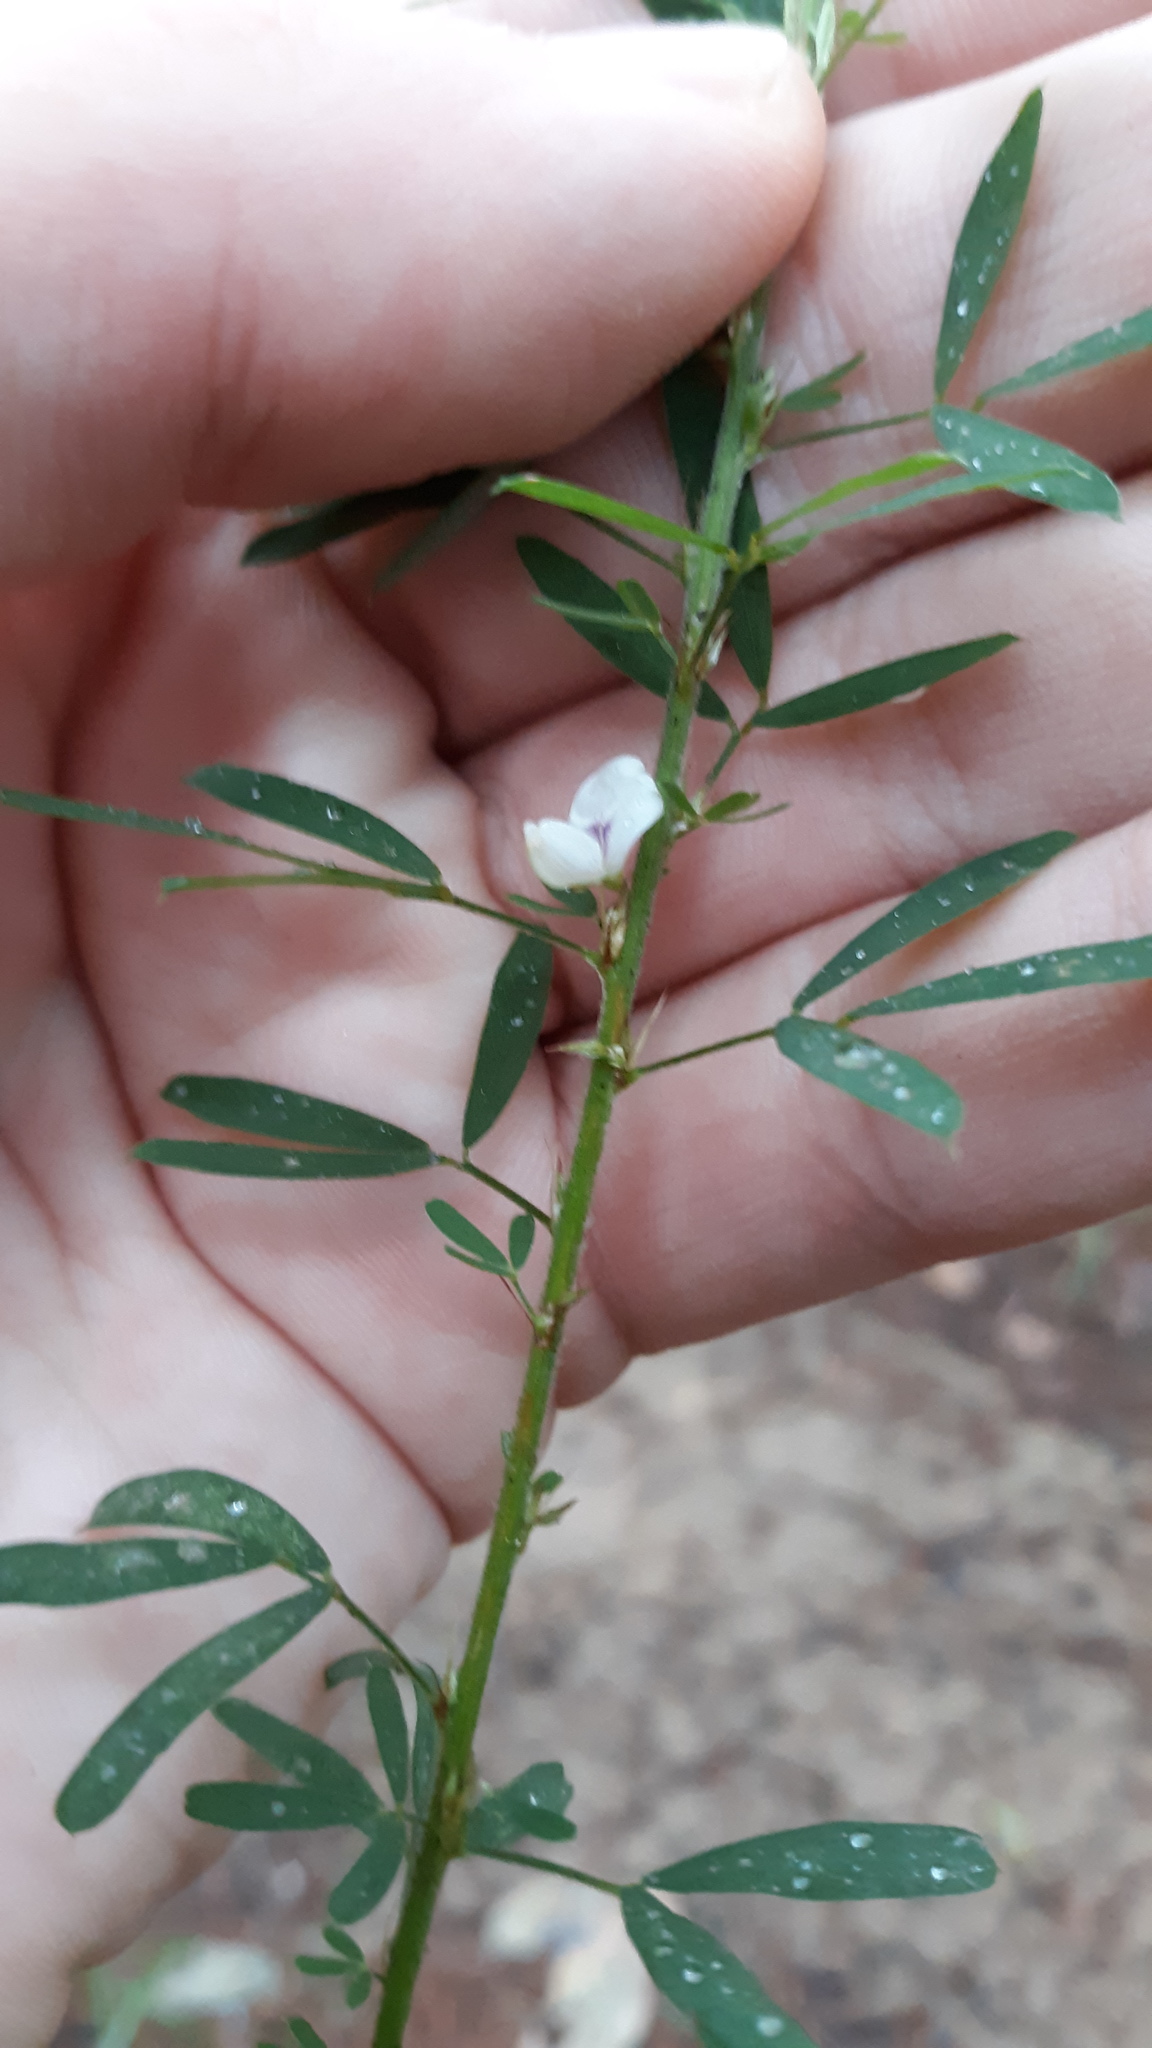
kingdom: Plantae
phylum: Tracheophyta
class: Magnoliopsida
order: Fabales
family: Fabaceae
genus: Lespedeza
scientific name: Lespedeza cuneata
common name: Chinese bush-clover
